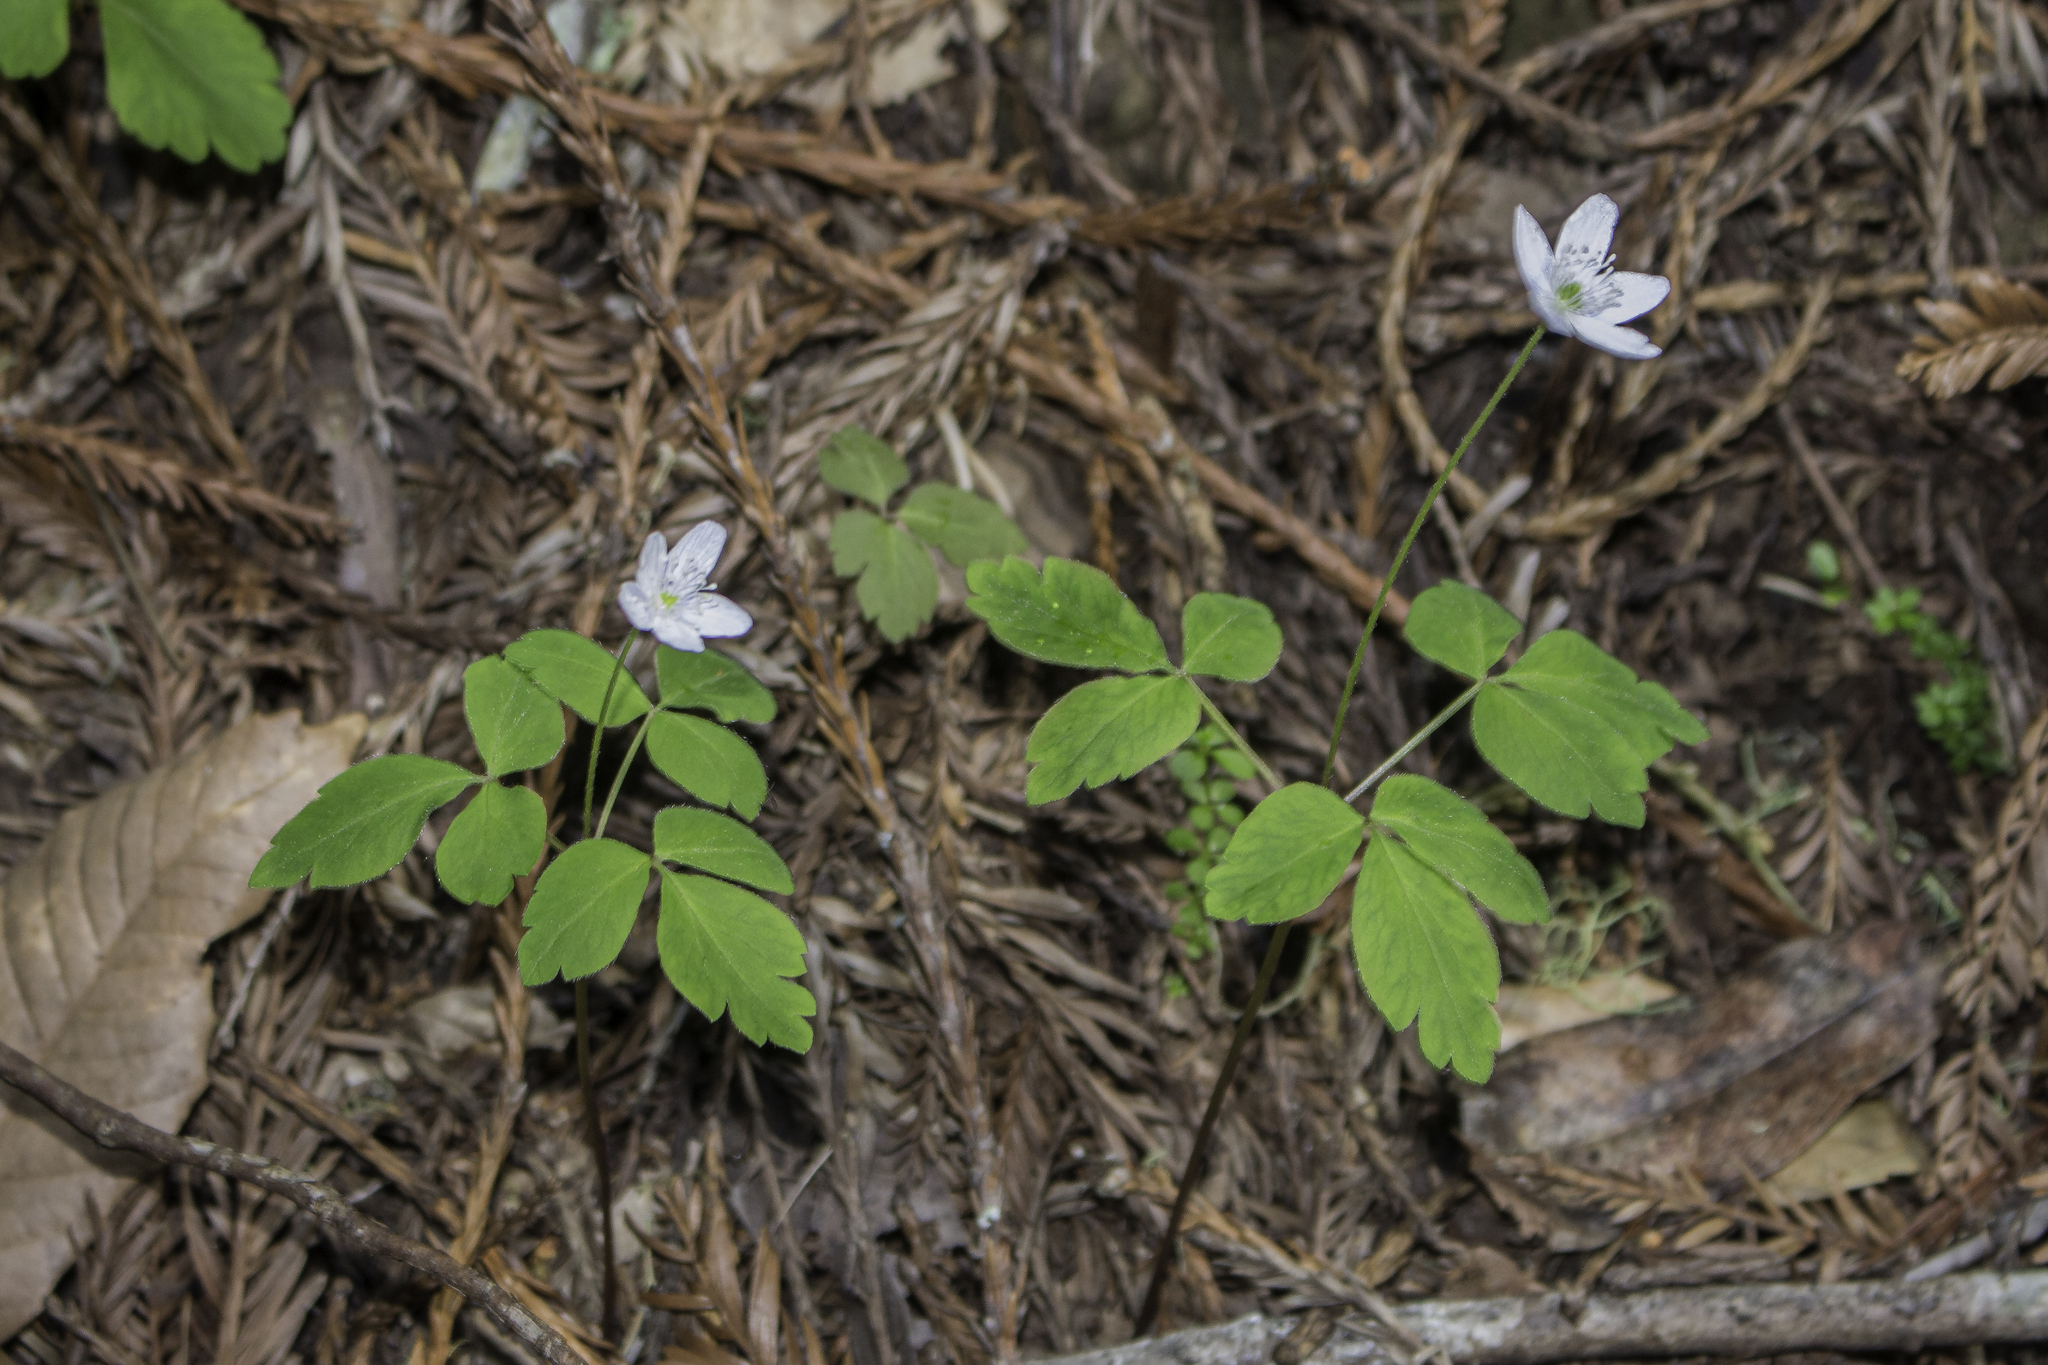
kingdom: Plantae
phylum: Tracheophyta
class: Magnoliopsida
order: Ranunculales
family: Ranunculaceae
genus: Anemone
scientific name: Anemone
